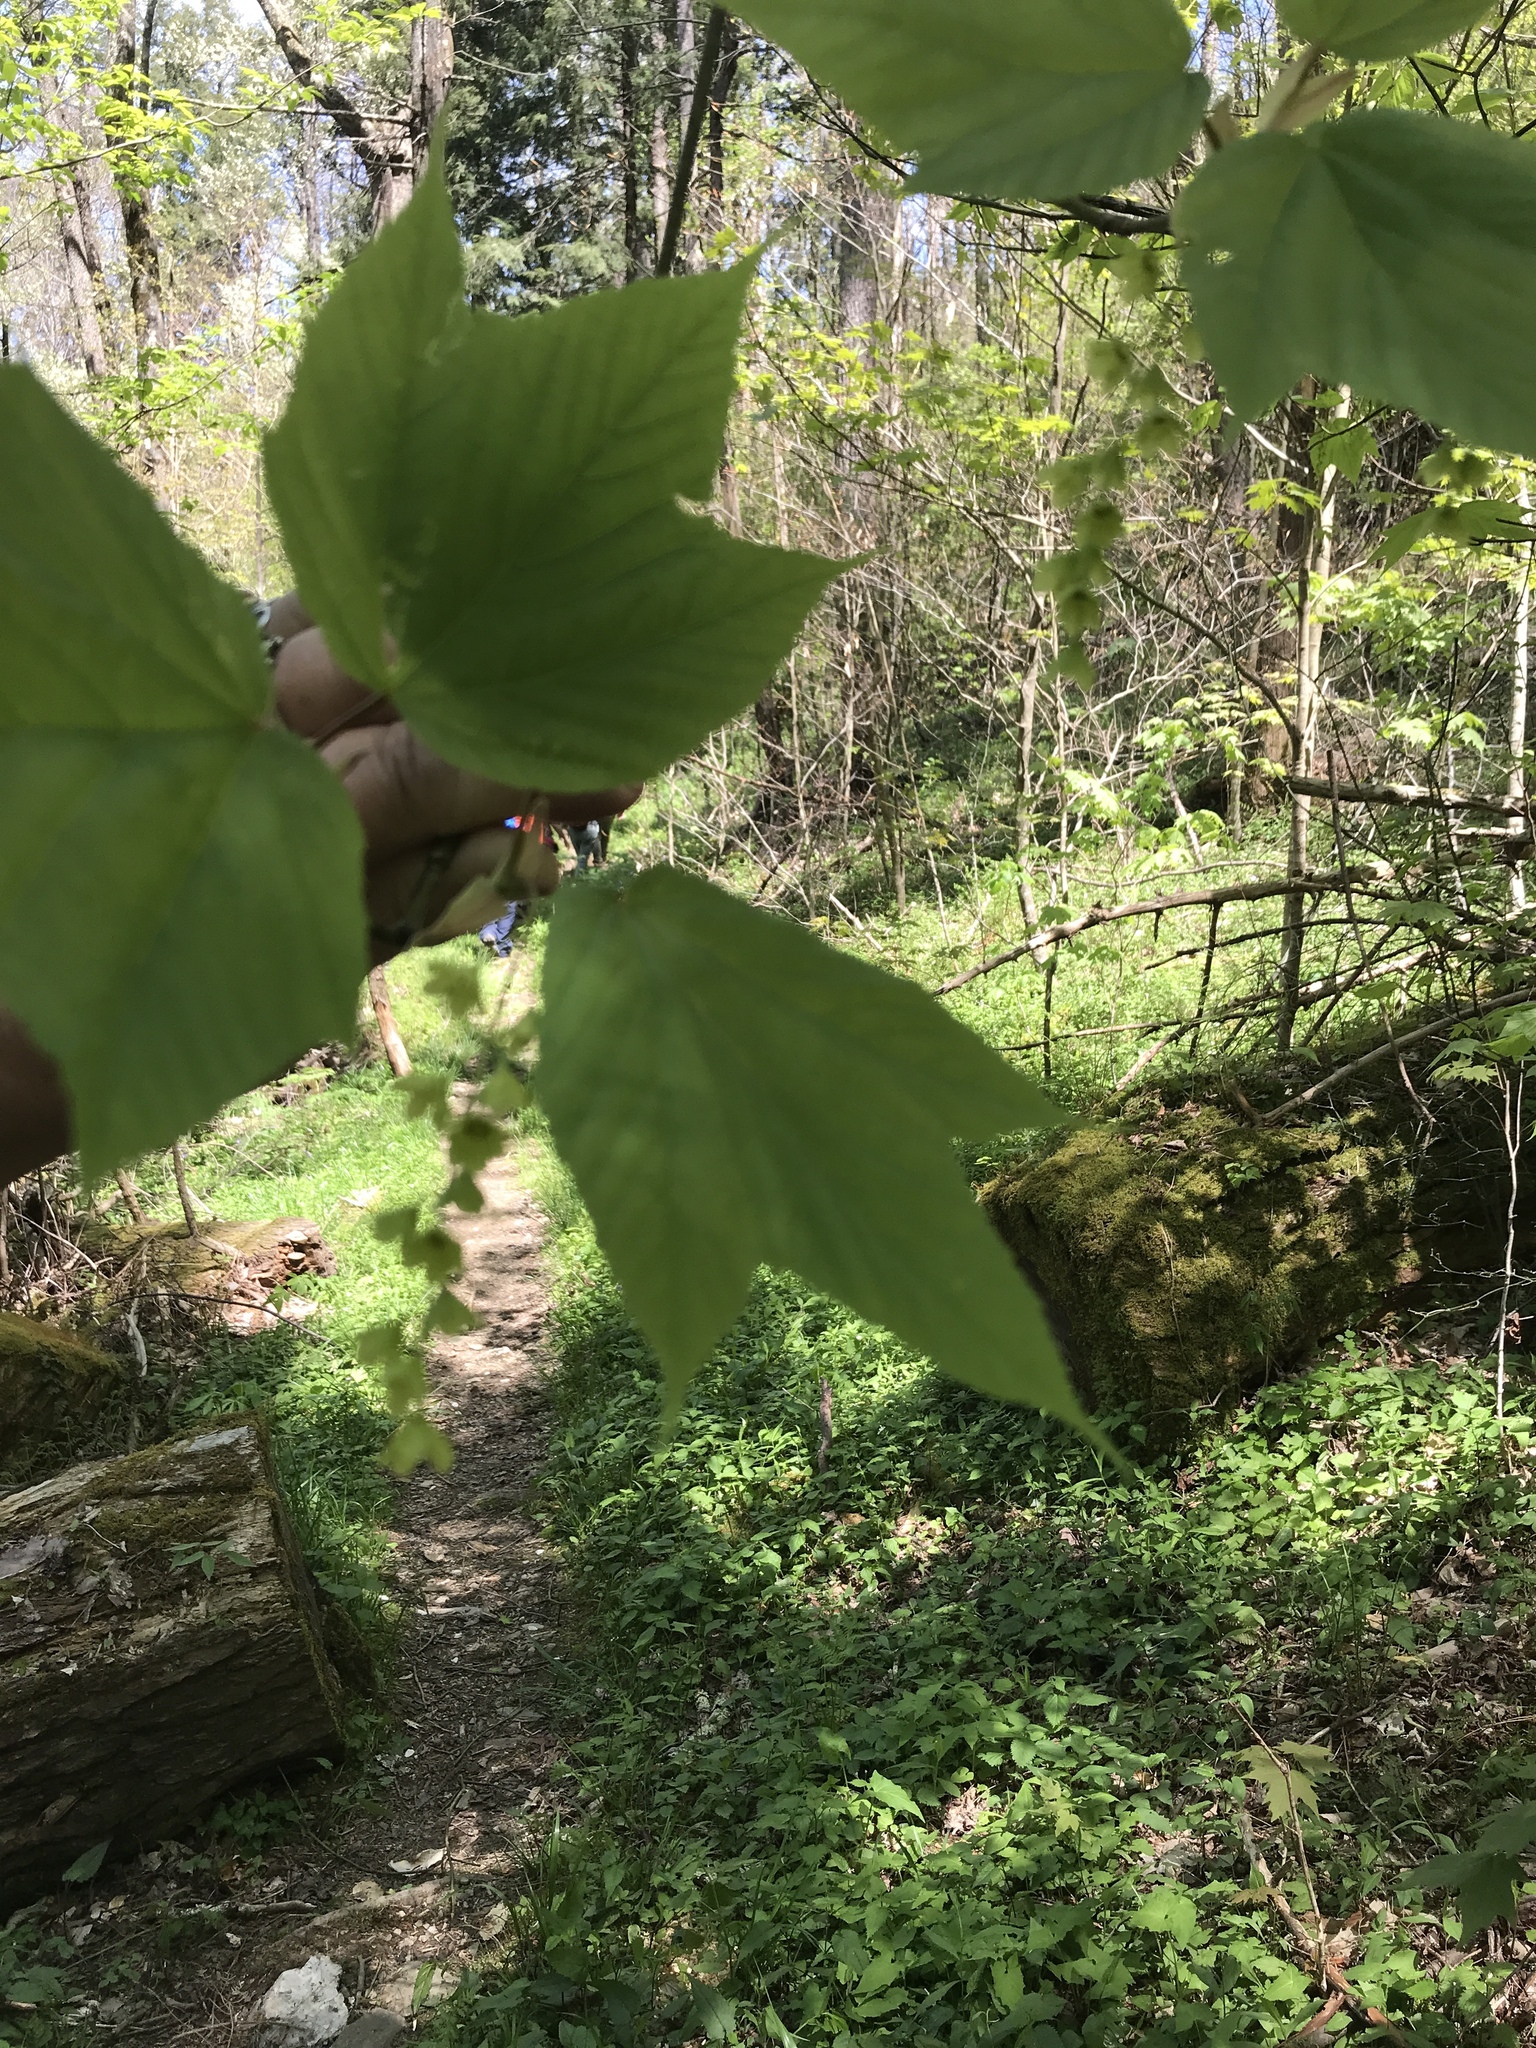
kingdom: Plantae
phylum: Tracheophyta
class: Magnoliopsida
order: Sapindales
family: Sapindaceae
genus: Acer
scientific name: Acer pensylvanicum
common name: Moosewood
